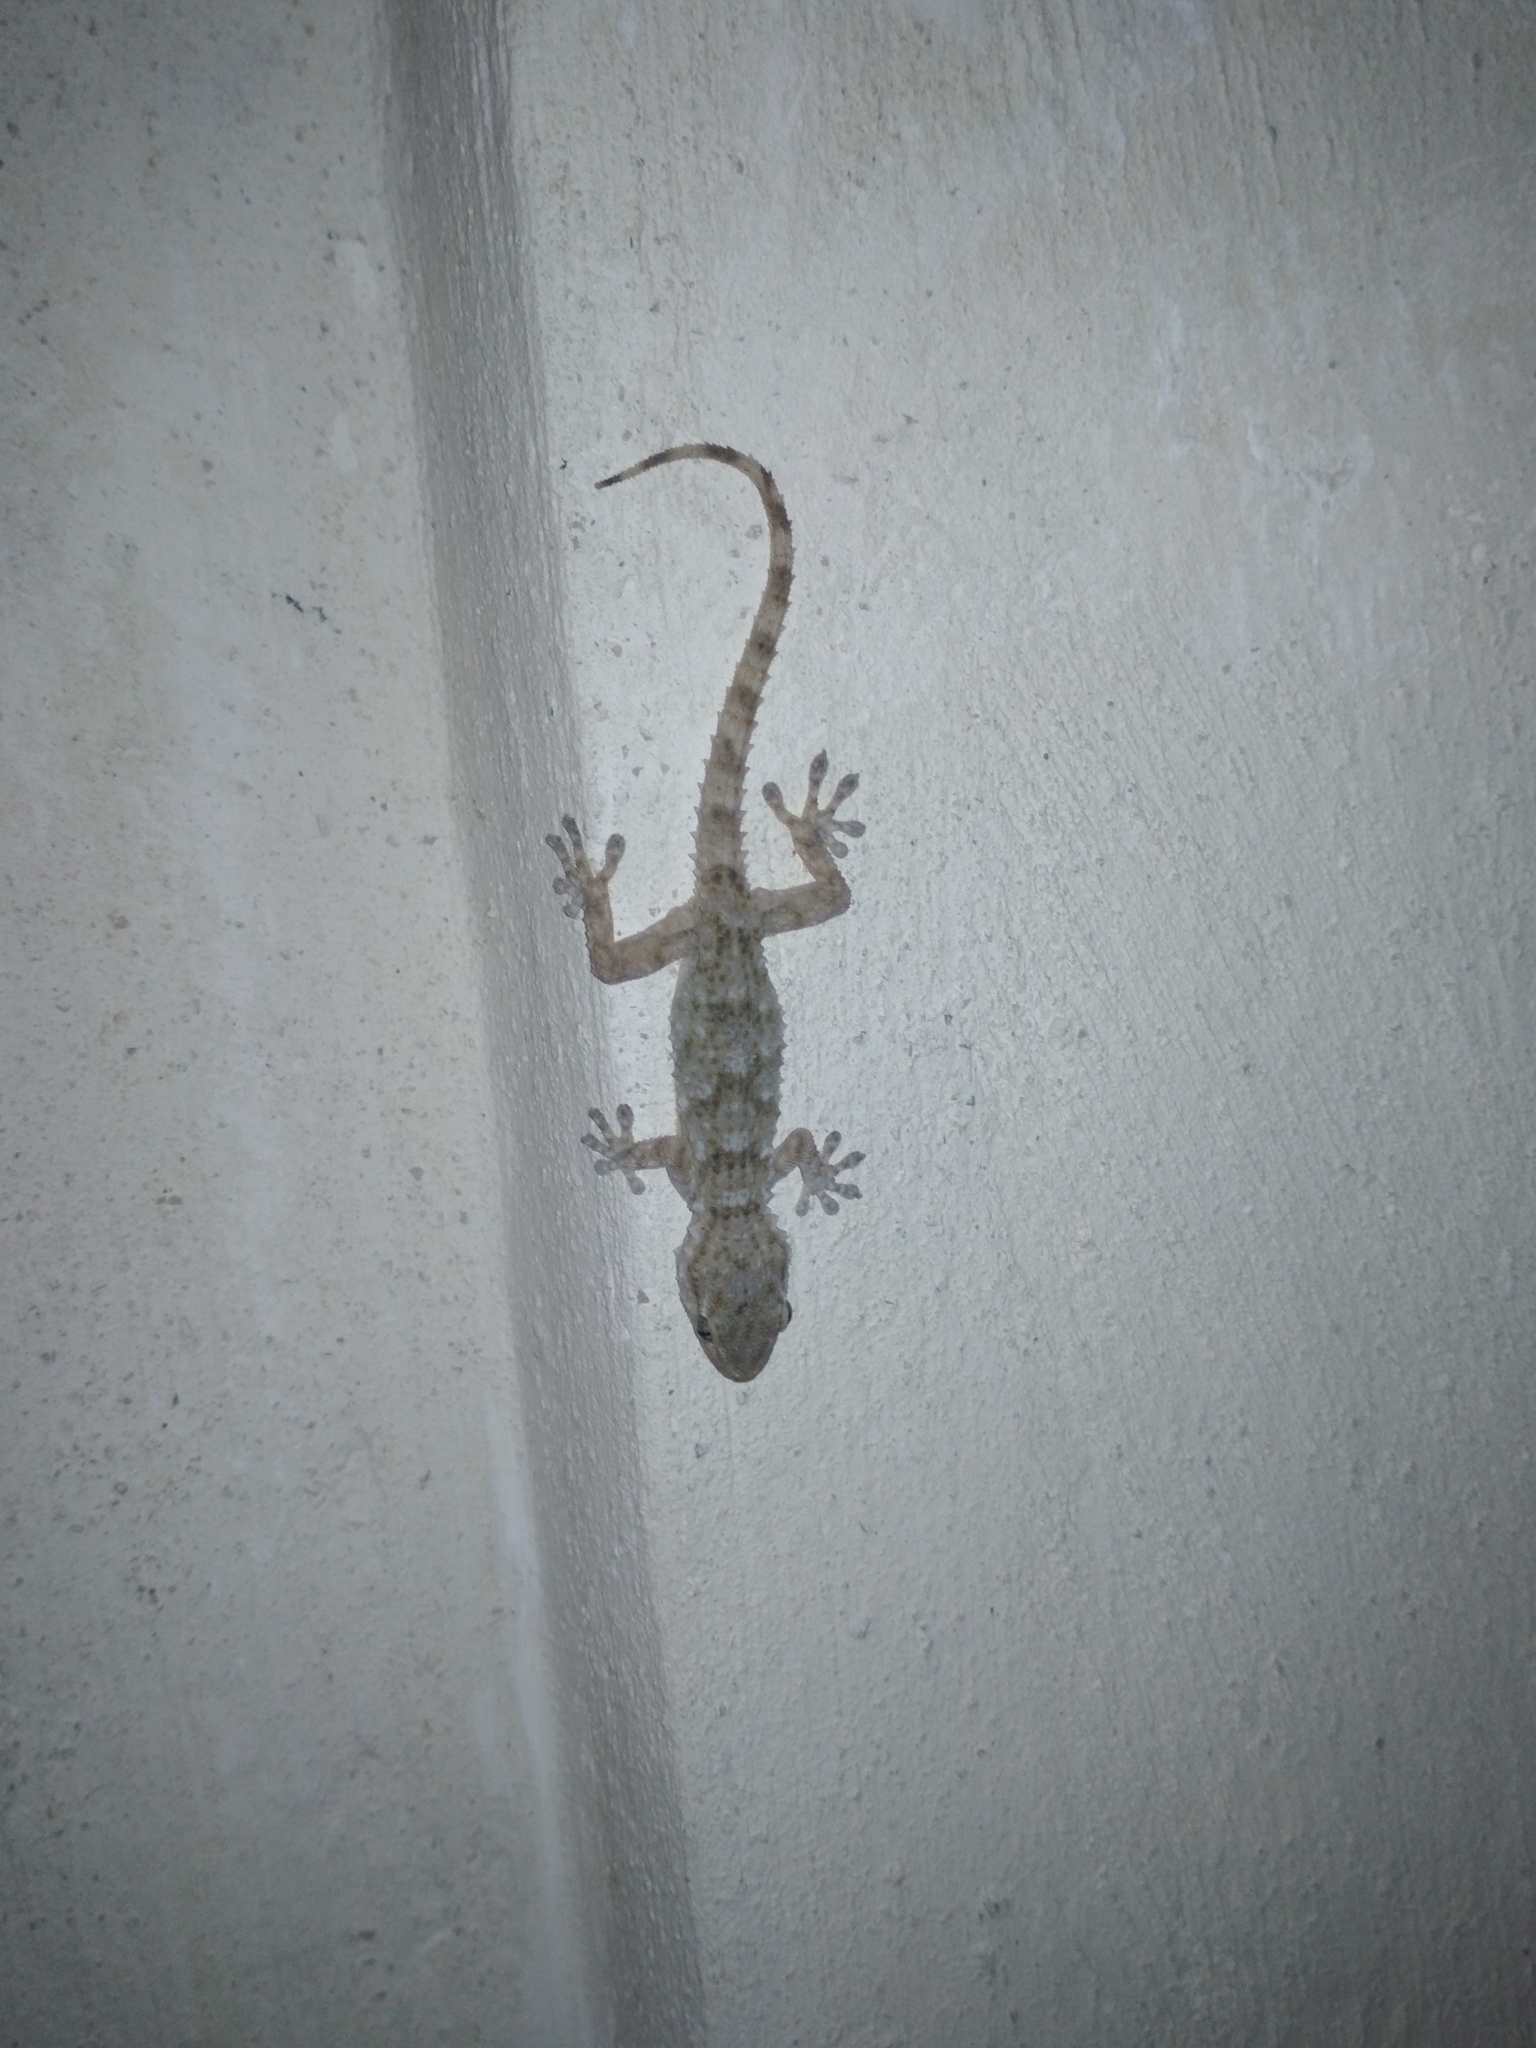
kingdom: Animalia
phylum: Chordata
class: Squamata
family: Phyllodactylidae
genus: Tarentola
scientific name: Tarentola mauritanica
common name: Moorish gecko
